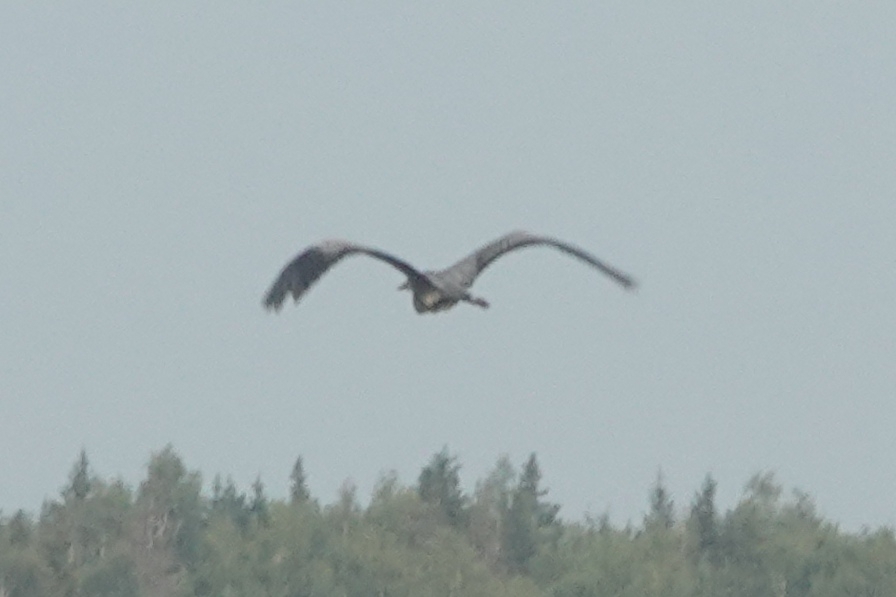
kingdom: Animalia
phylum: Chordata
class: Aves
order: Pelecaniformes
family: Ardeidae
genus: Ardea
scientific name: Ardea cinerea
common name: Grey heron
